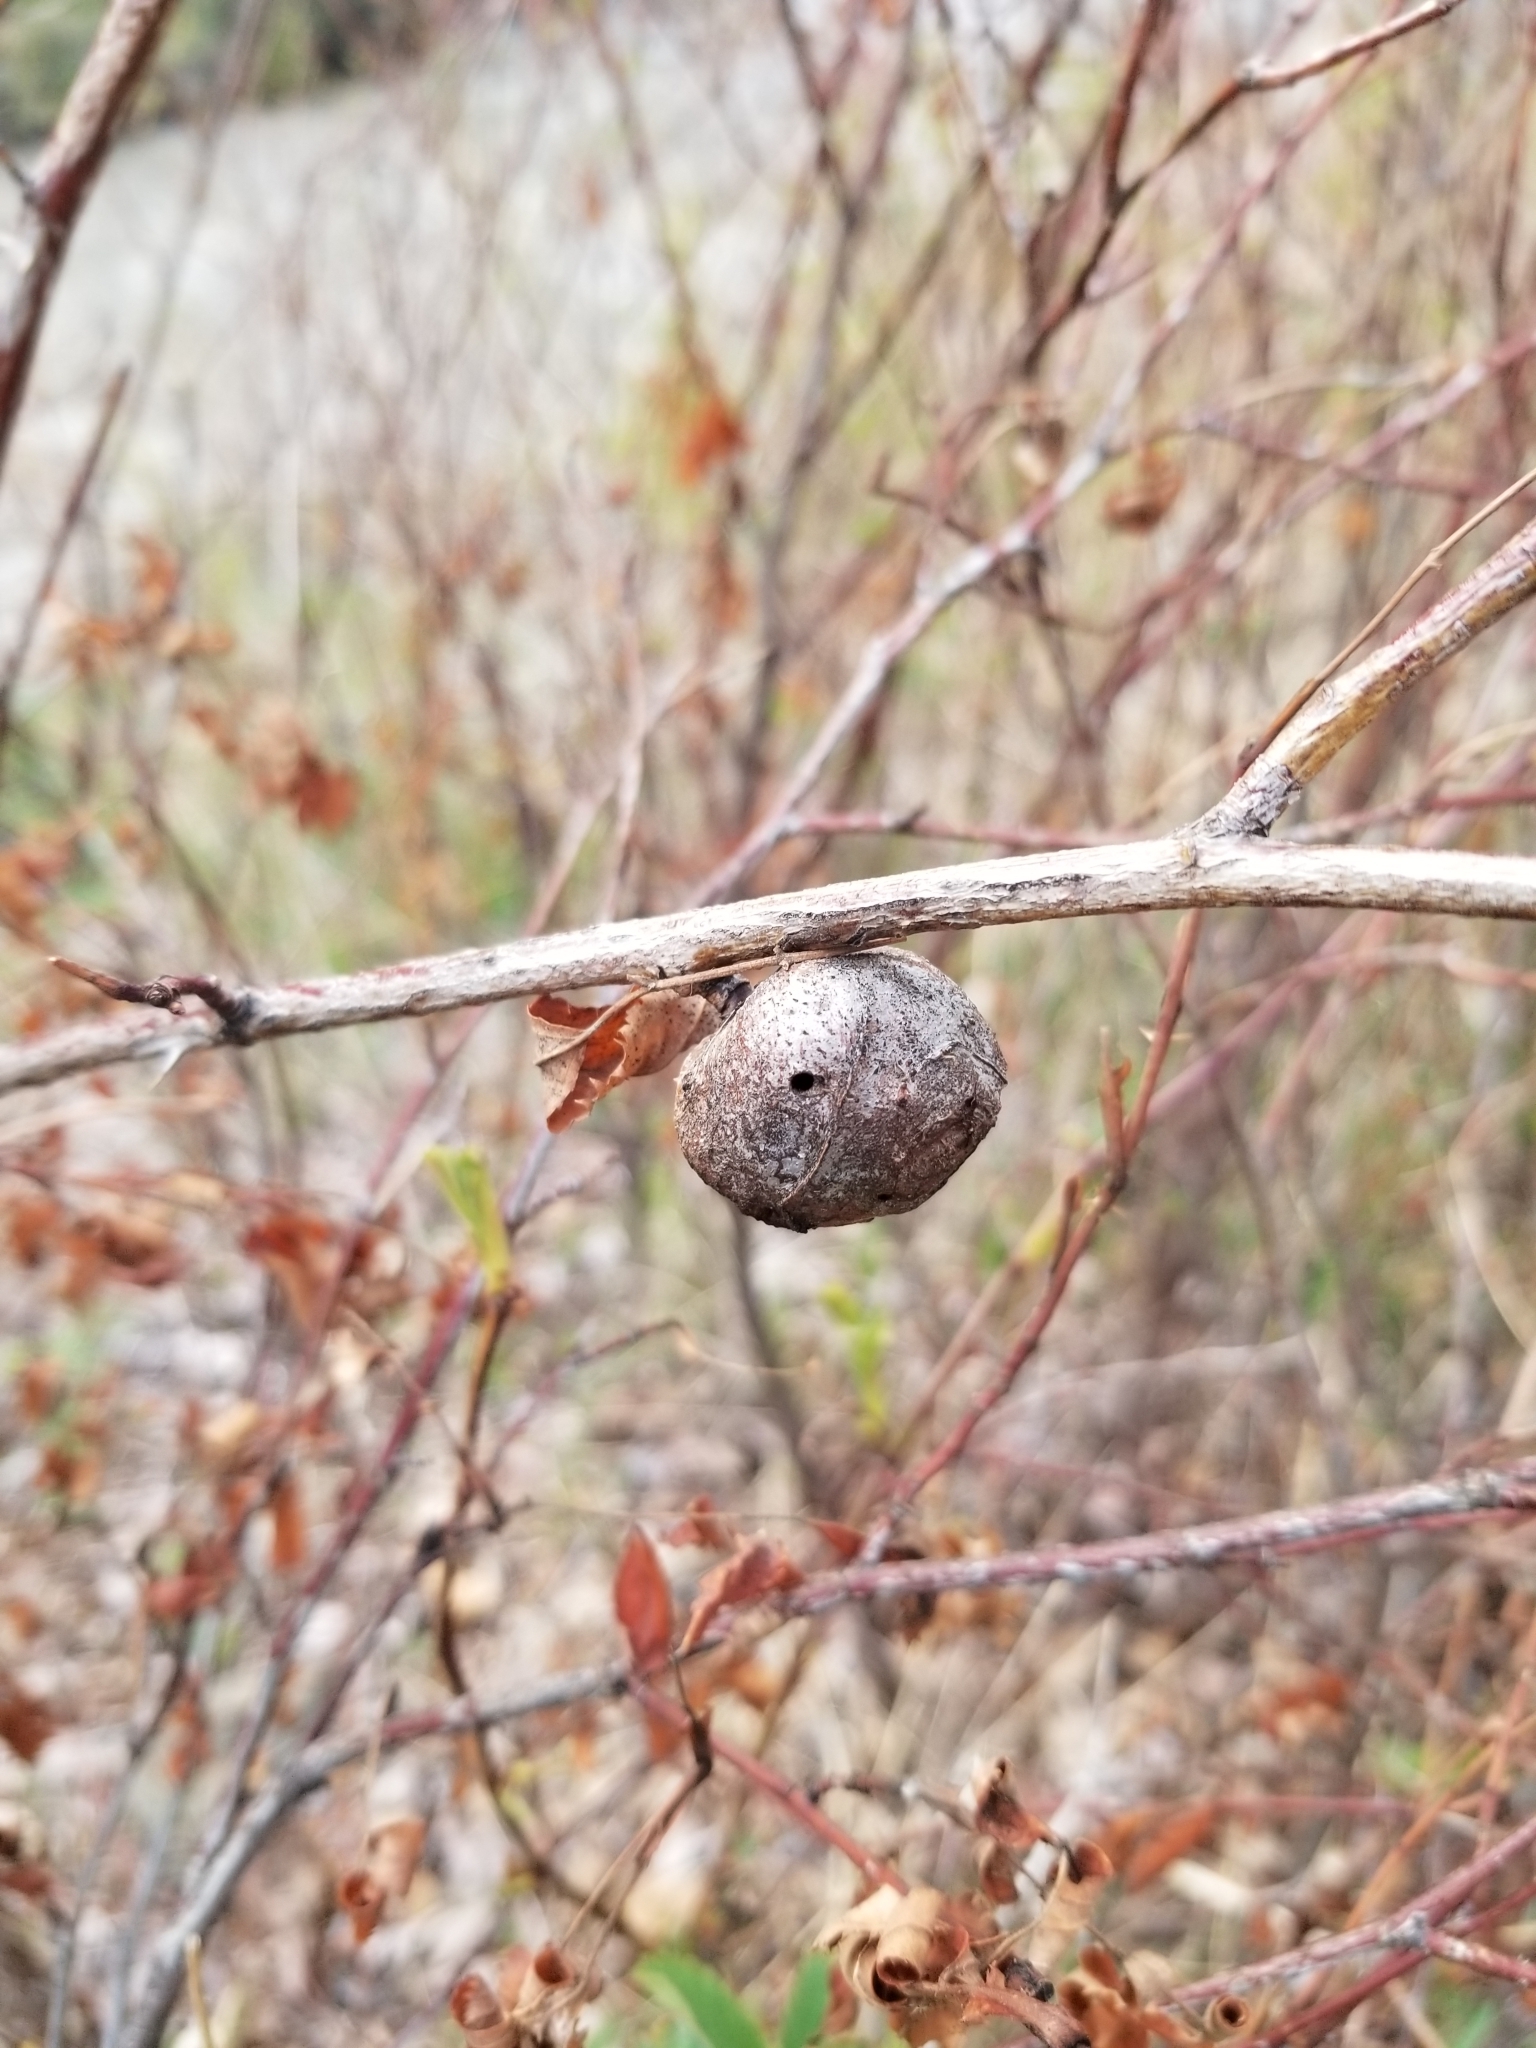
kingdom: Animalia
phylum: Arthropoda
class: Insecta
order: Hymenoptera
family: Cynipidae
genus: Diplolepis
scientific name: Diplolepis spinosa
